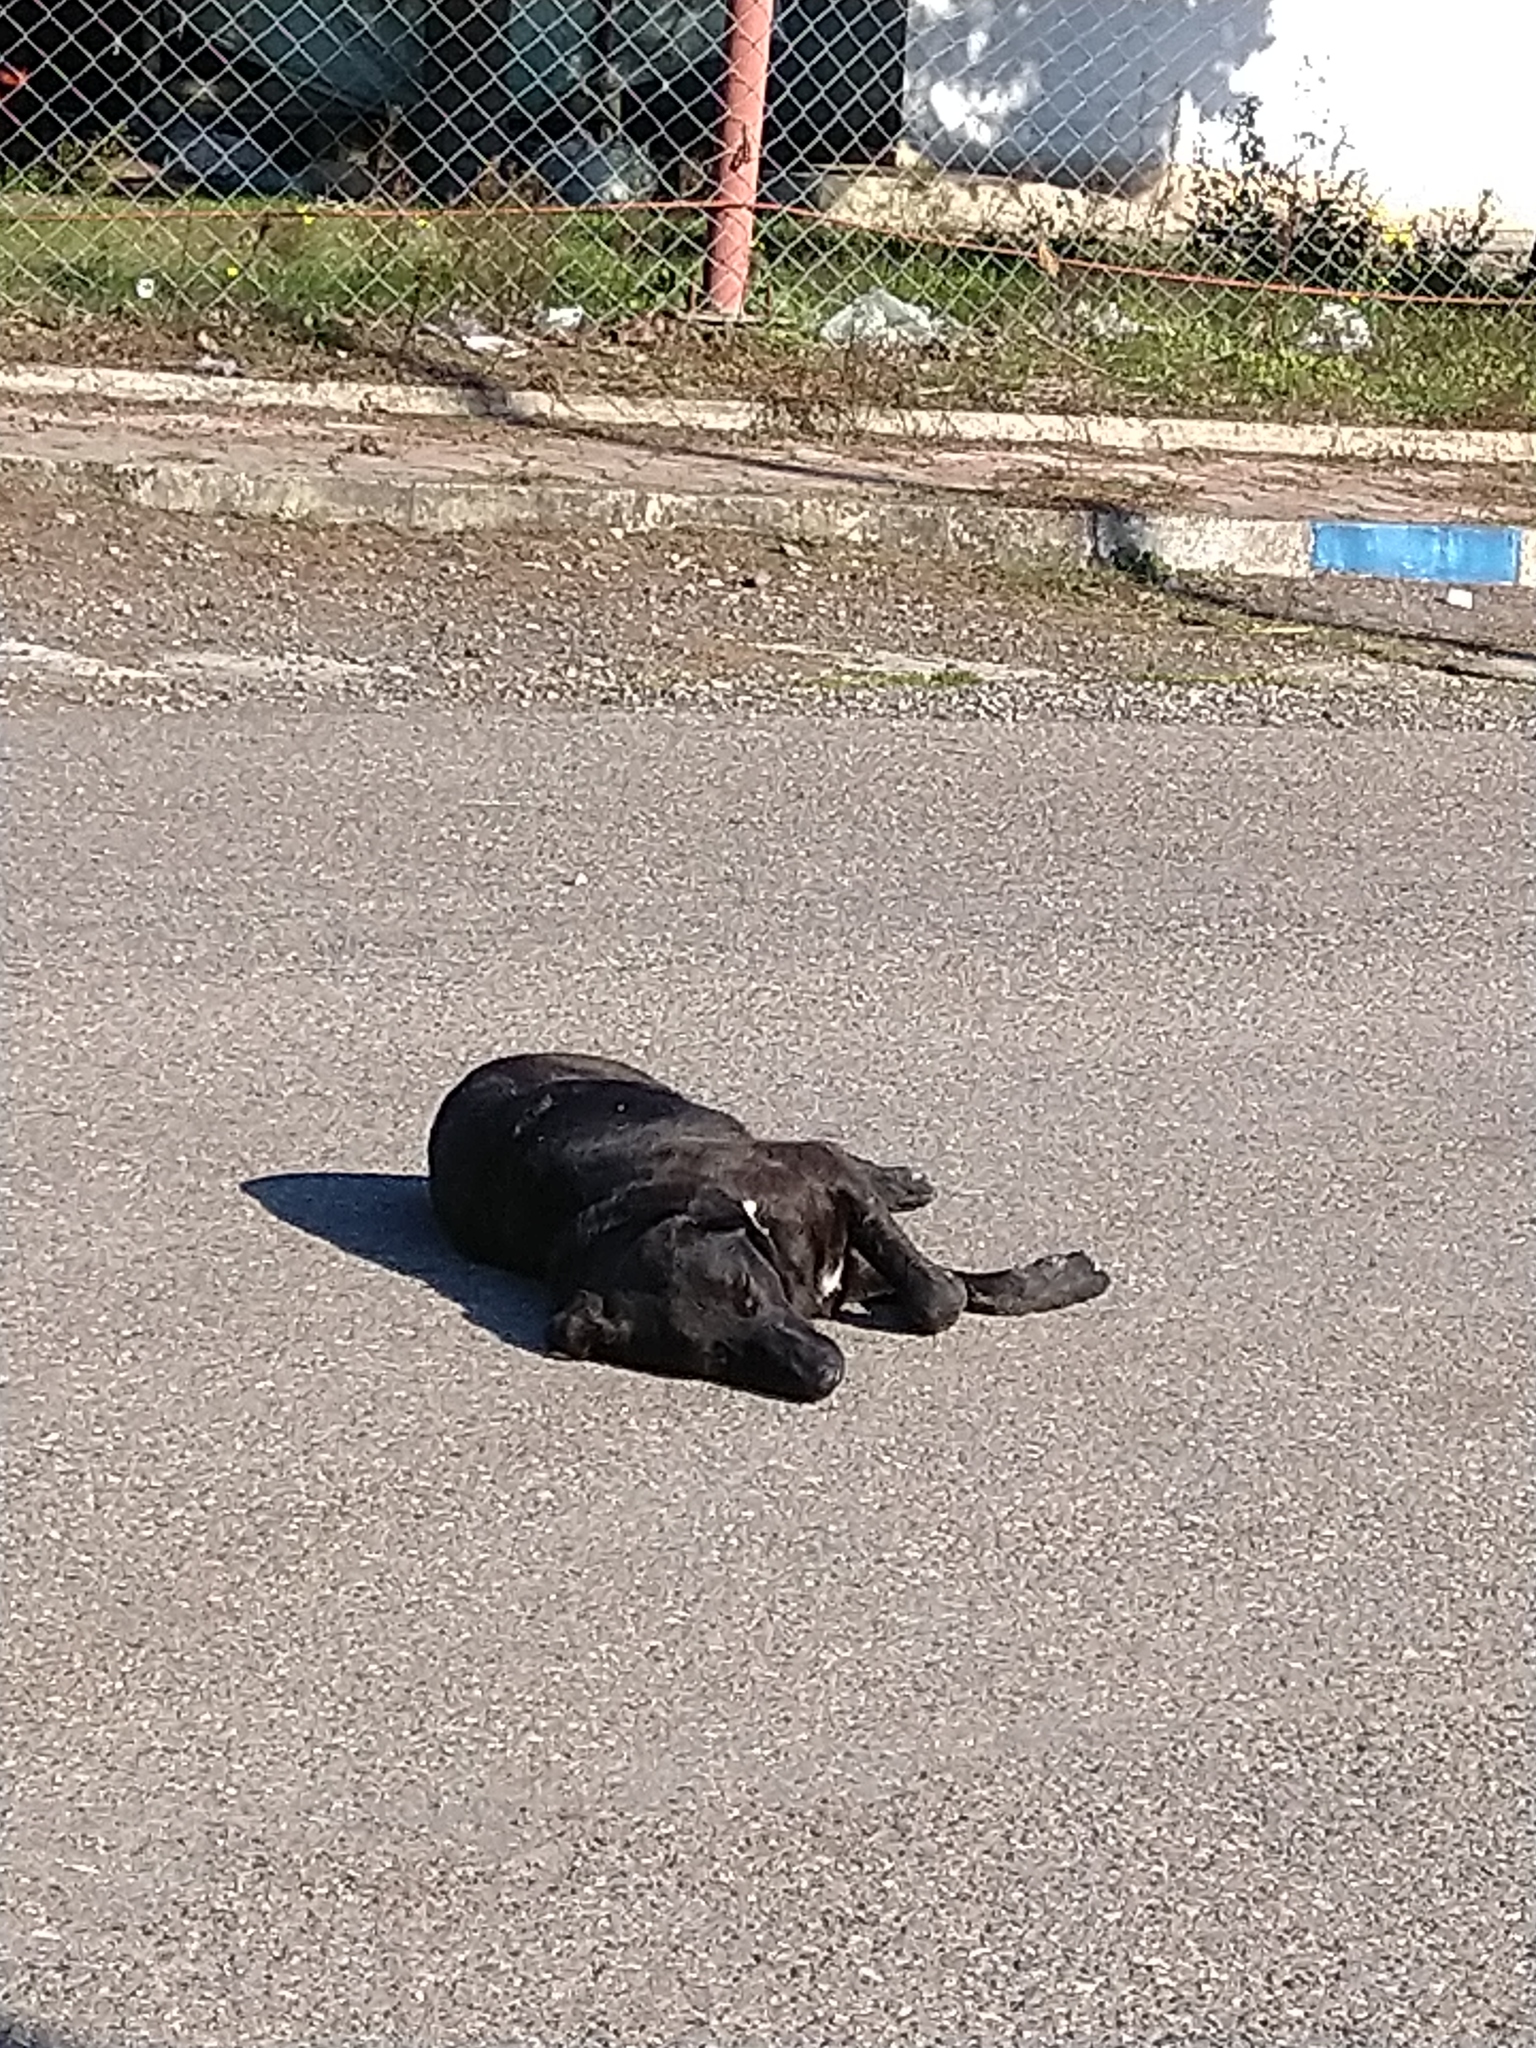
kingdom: Animalia
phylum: Chordata
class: Mammalia
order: Carnivora
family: Canidae
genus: Canis
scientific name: Canis lupus
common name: Gray wolf
